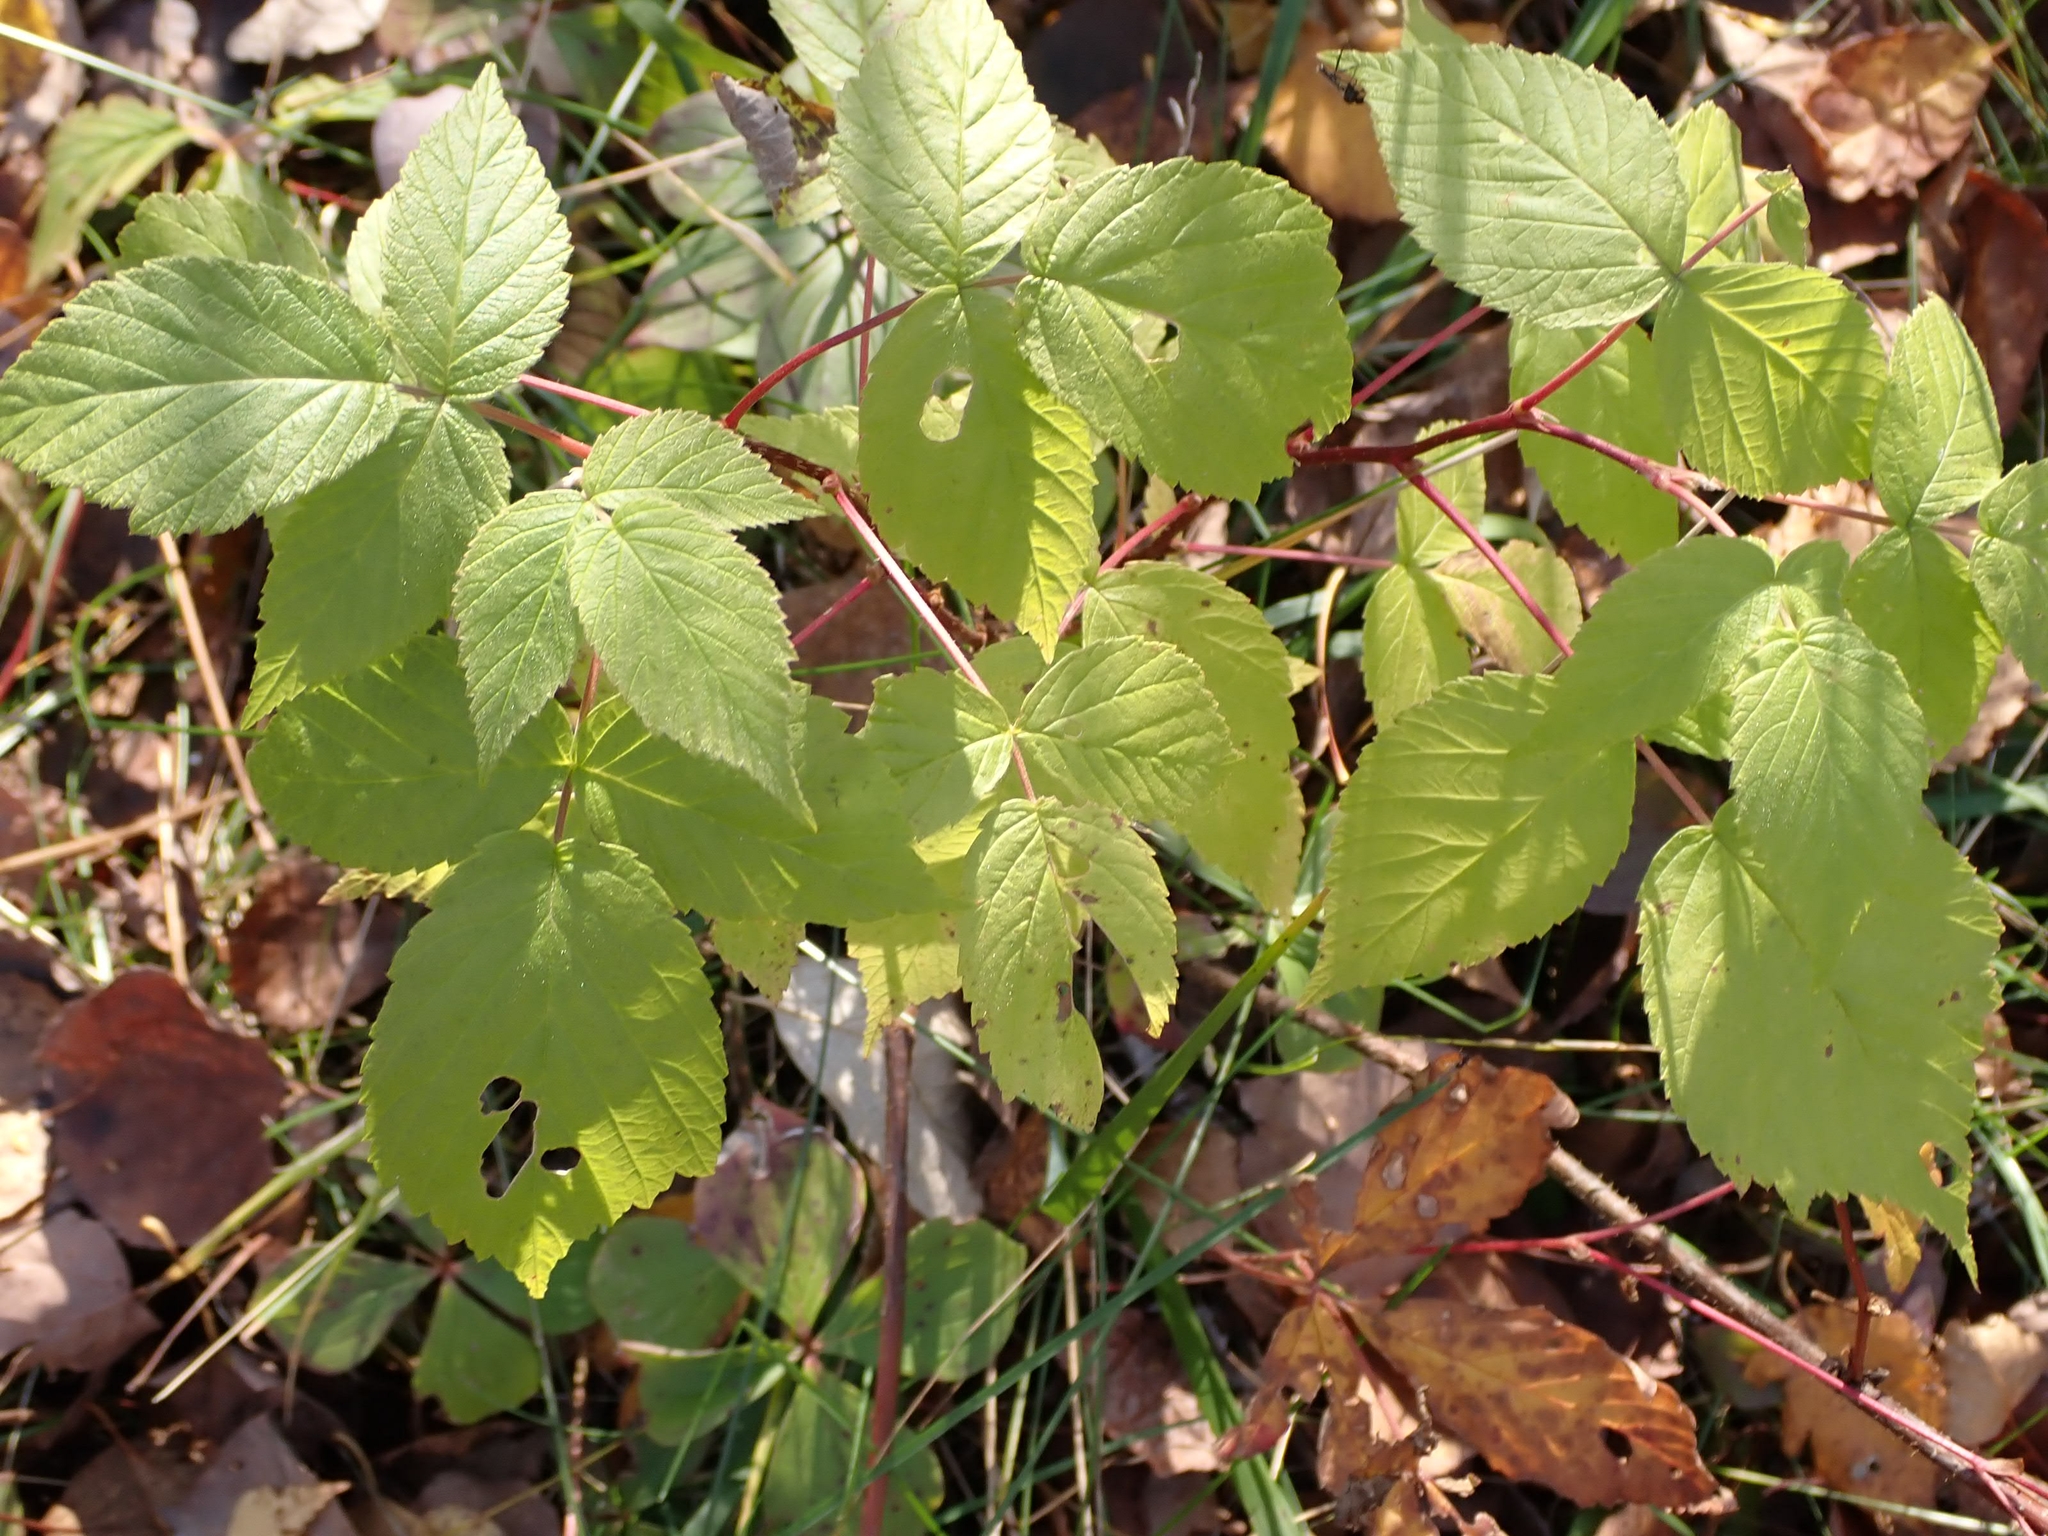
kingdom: Plantae
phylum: Tracheophyta
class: Magnoliopsida
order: Rosales
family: Rosaceae
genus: Rubus
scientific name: Rubus idaeus
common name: Raspberry
